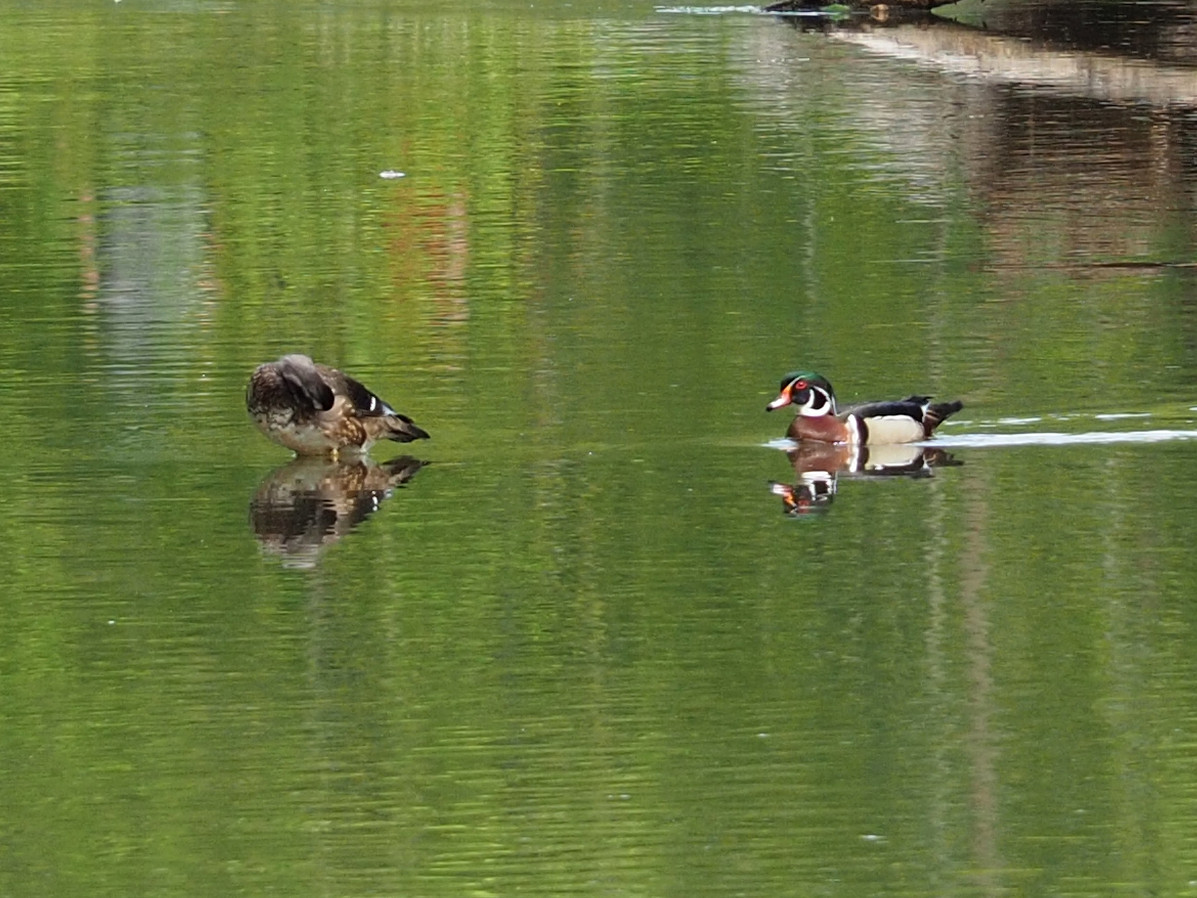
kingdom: Animalia
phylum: Chordata
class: Aves
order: Anseriformes
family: Anatidae
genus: Aix
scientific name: Aix sponsa
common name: Wood duck
